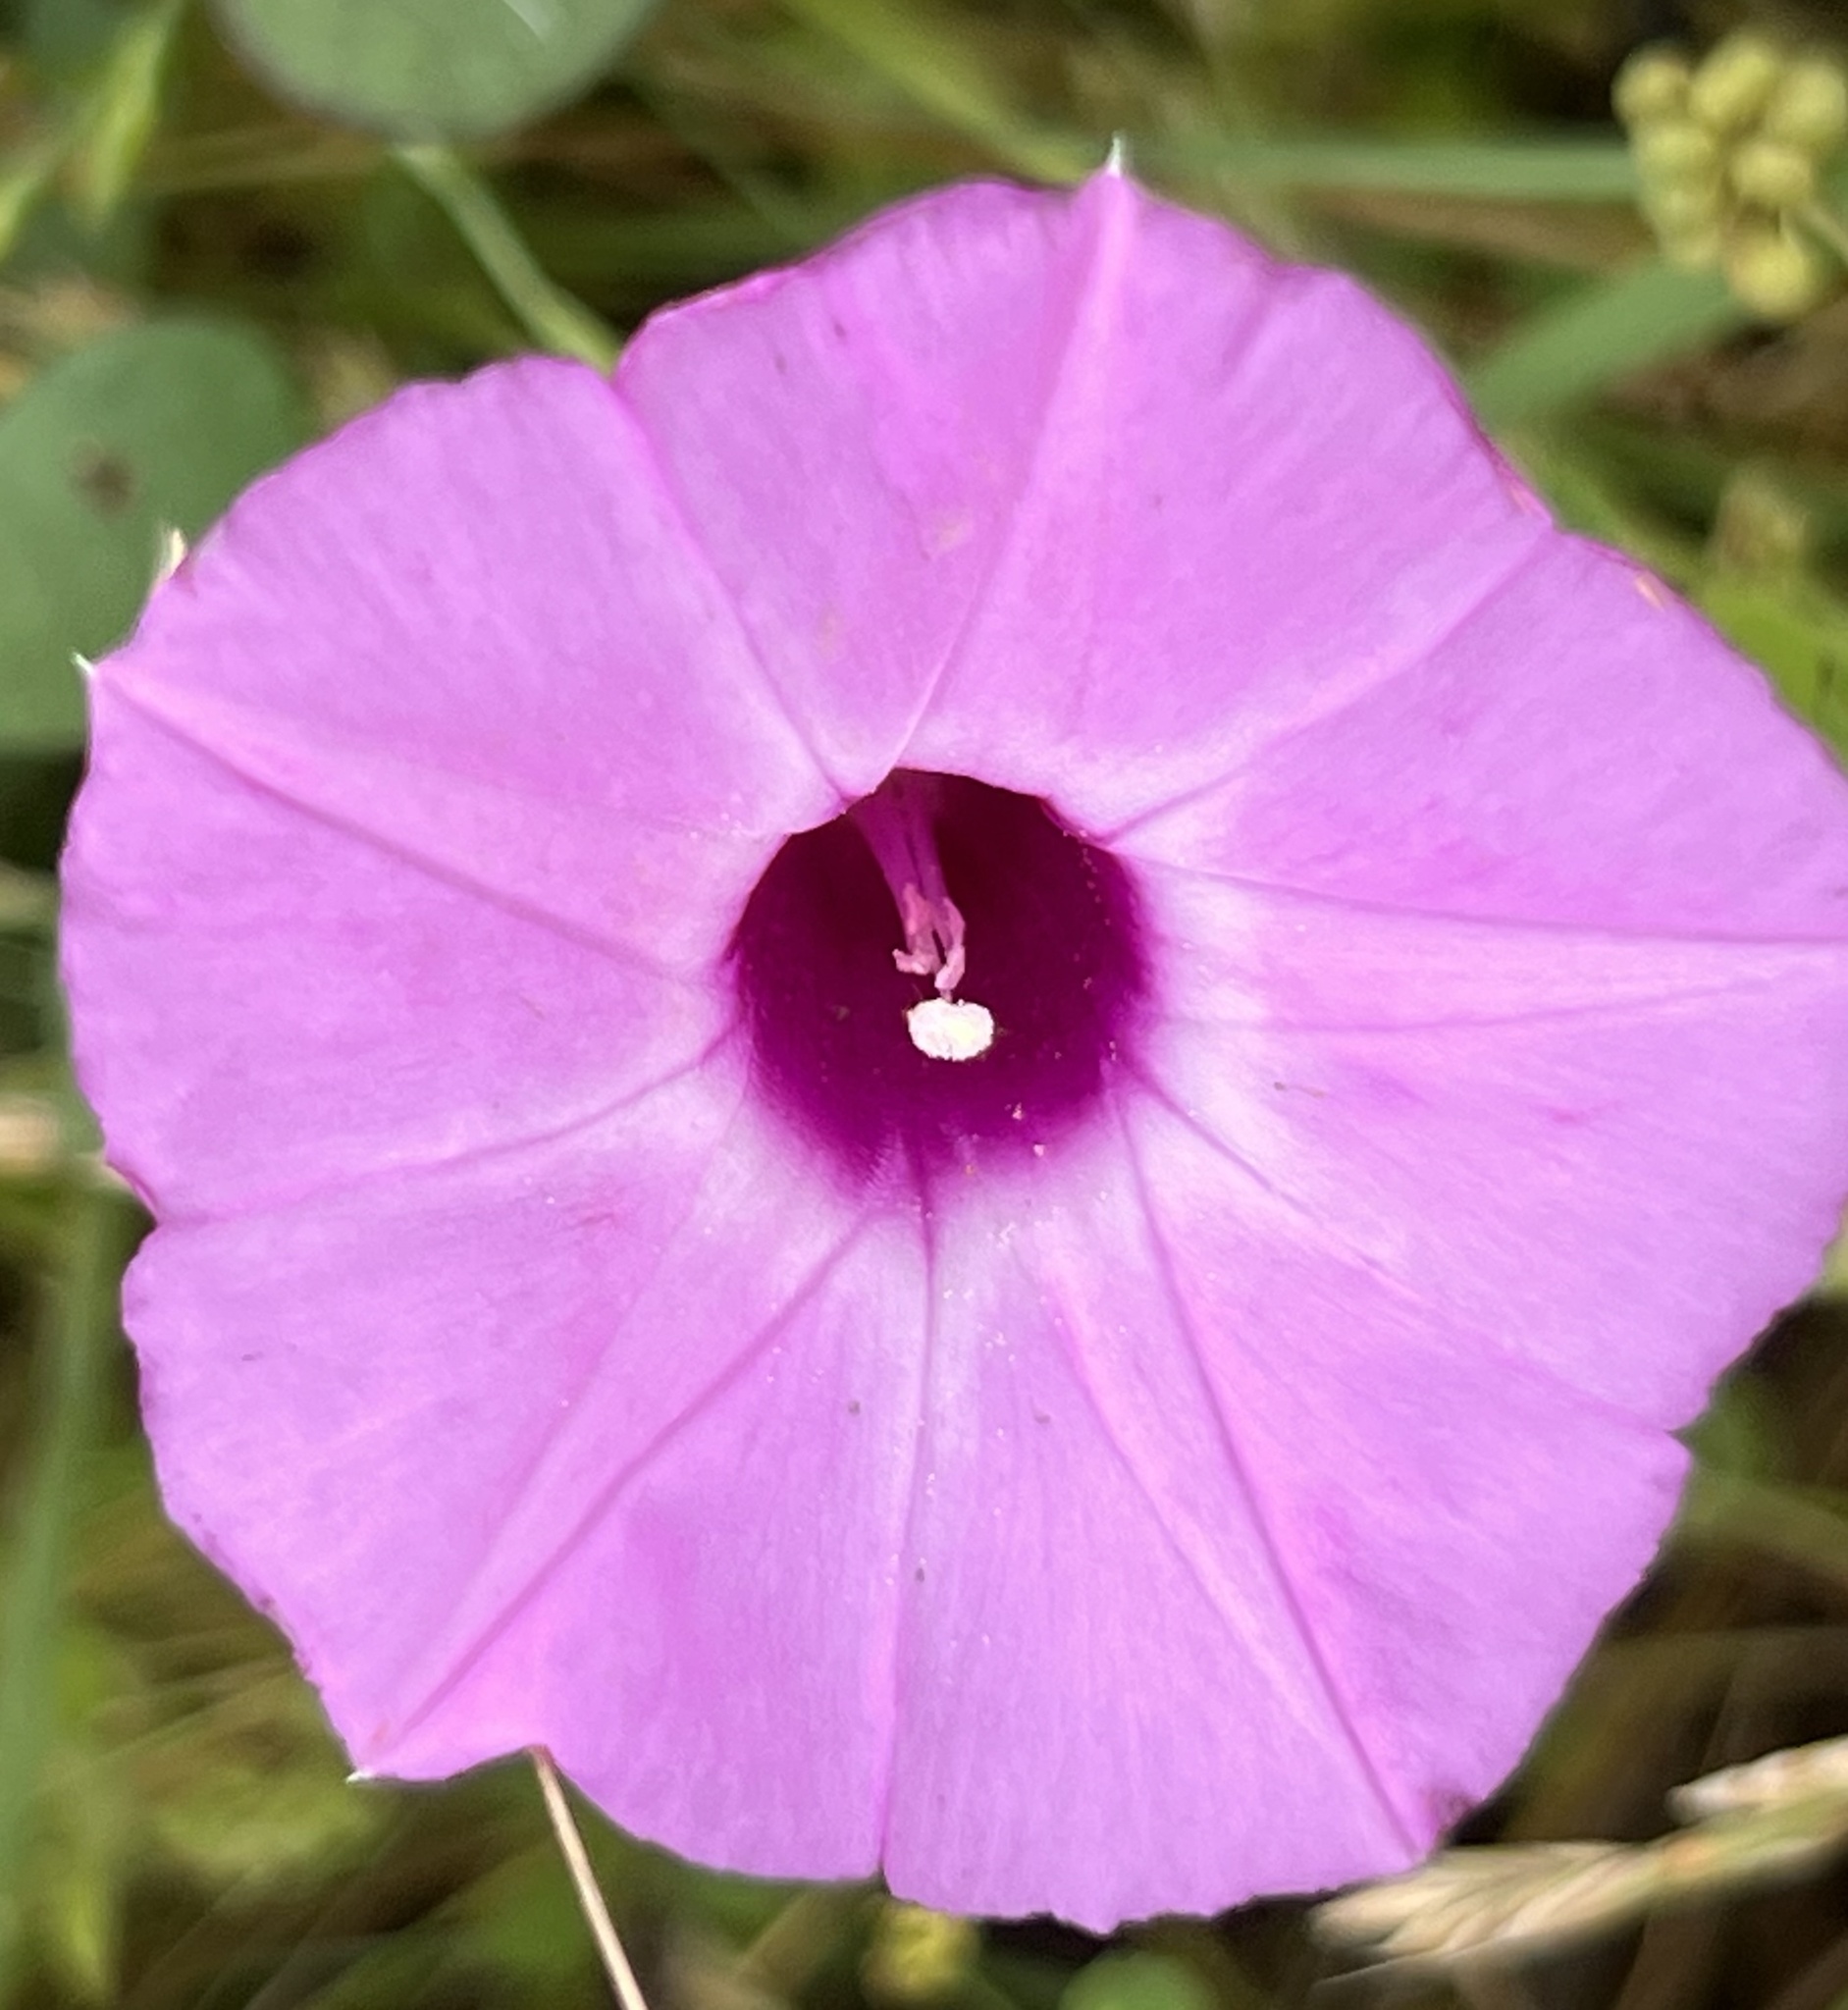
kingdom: Plantae
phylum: Tracheophyta
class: Magnoliopsida
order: Solanales
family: Convolvulaceae
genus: Ipomoea
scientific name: Ipomoea cordatotriloba
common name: Cotton morning glory
